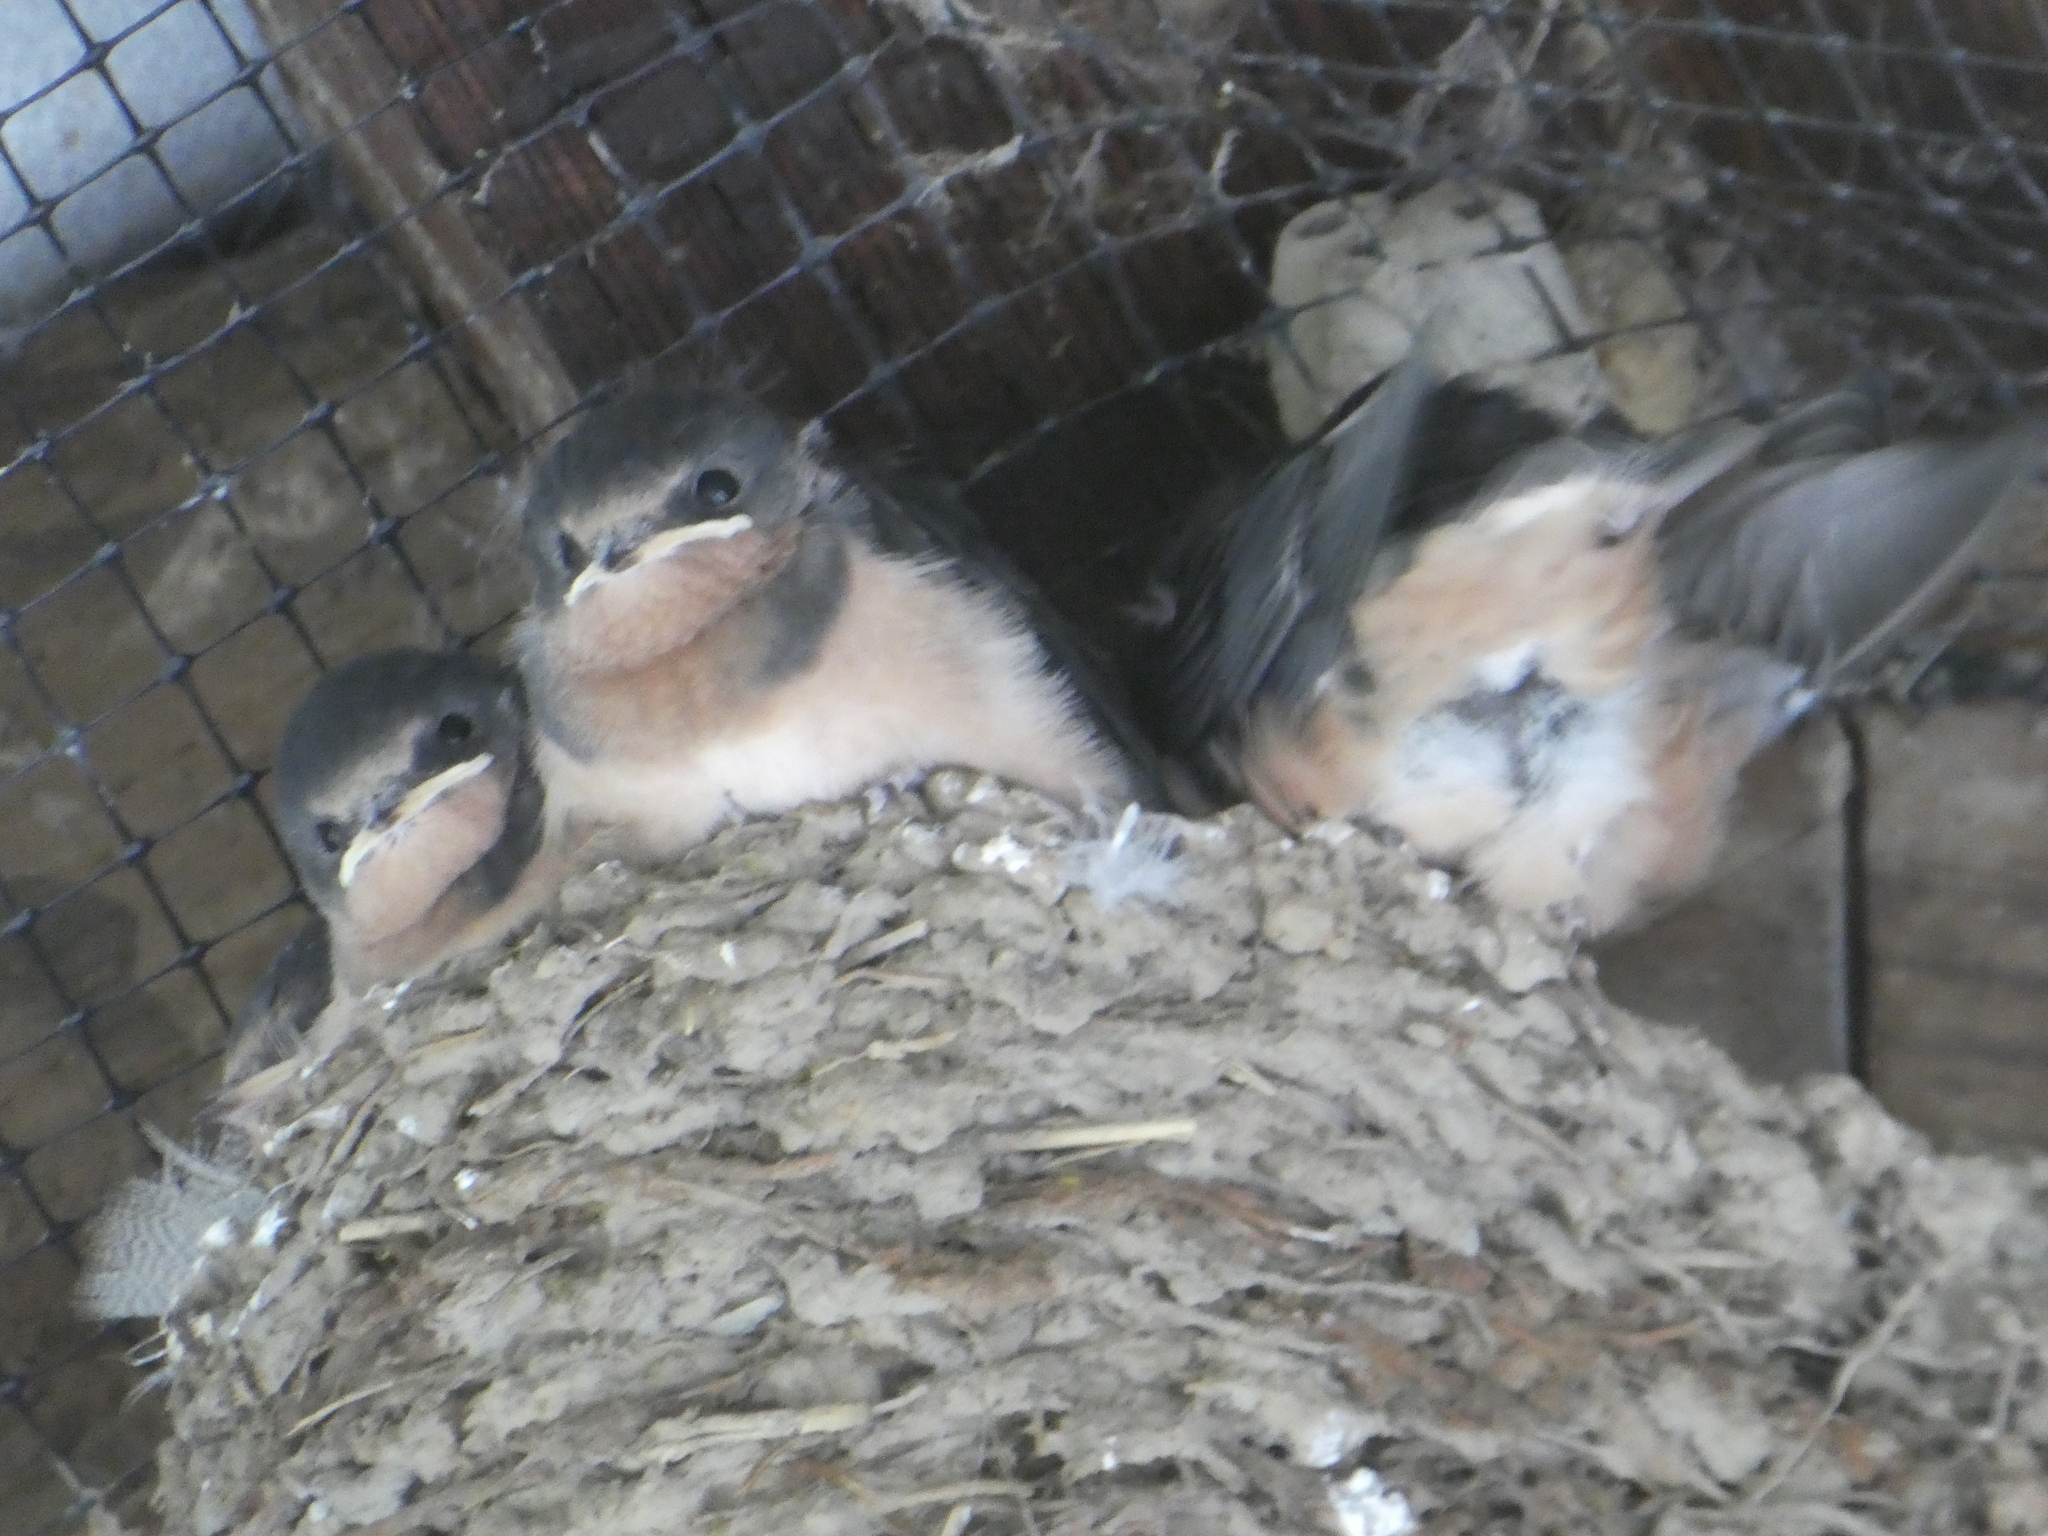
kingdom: Animalia
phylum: Chordata
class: Aves
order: Passeriformes
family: Hirundinidae
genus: Hirundo
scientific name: Hirundo rustica
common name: Barn swallow
